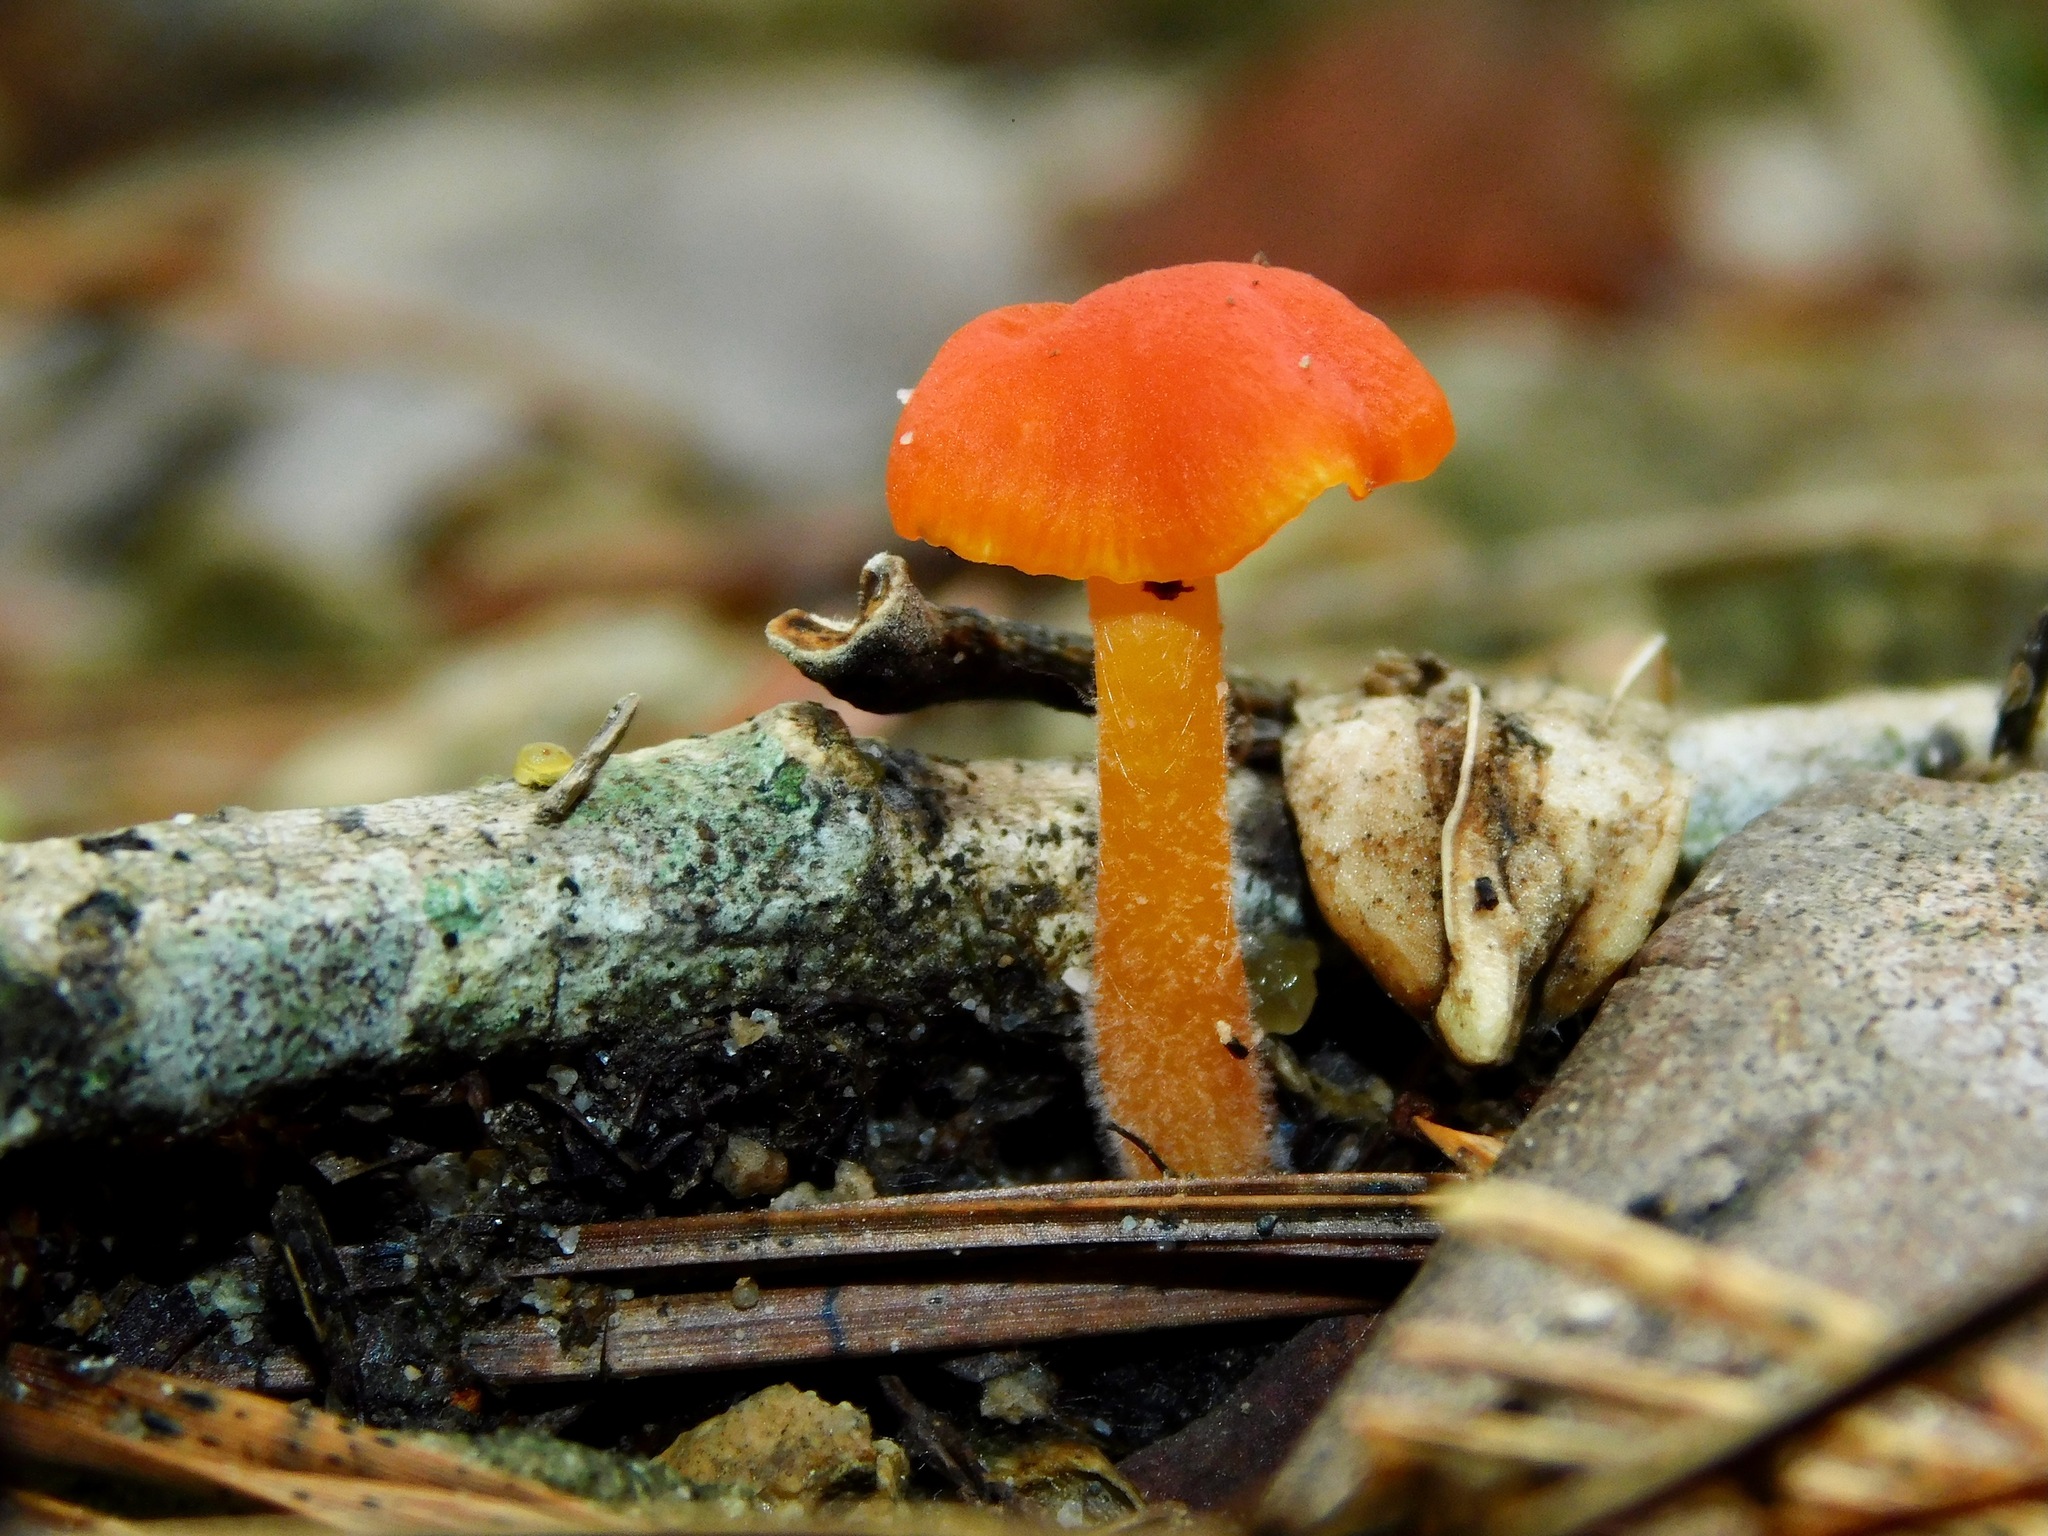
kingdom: Fungi
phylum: Basidiomycota
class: Agaricomycetes
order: Hymenochaetales
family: Rickenellaceae
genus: Rickenella
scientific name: Rickenella fibula
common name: Orange mosscap
